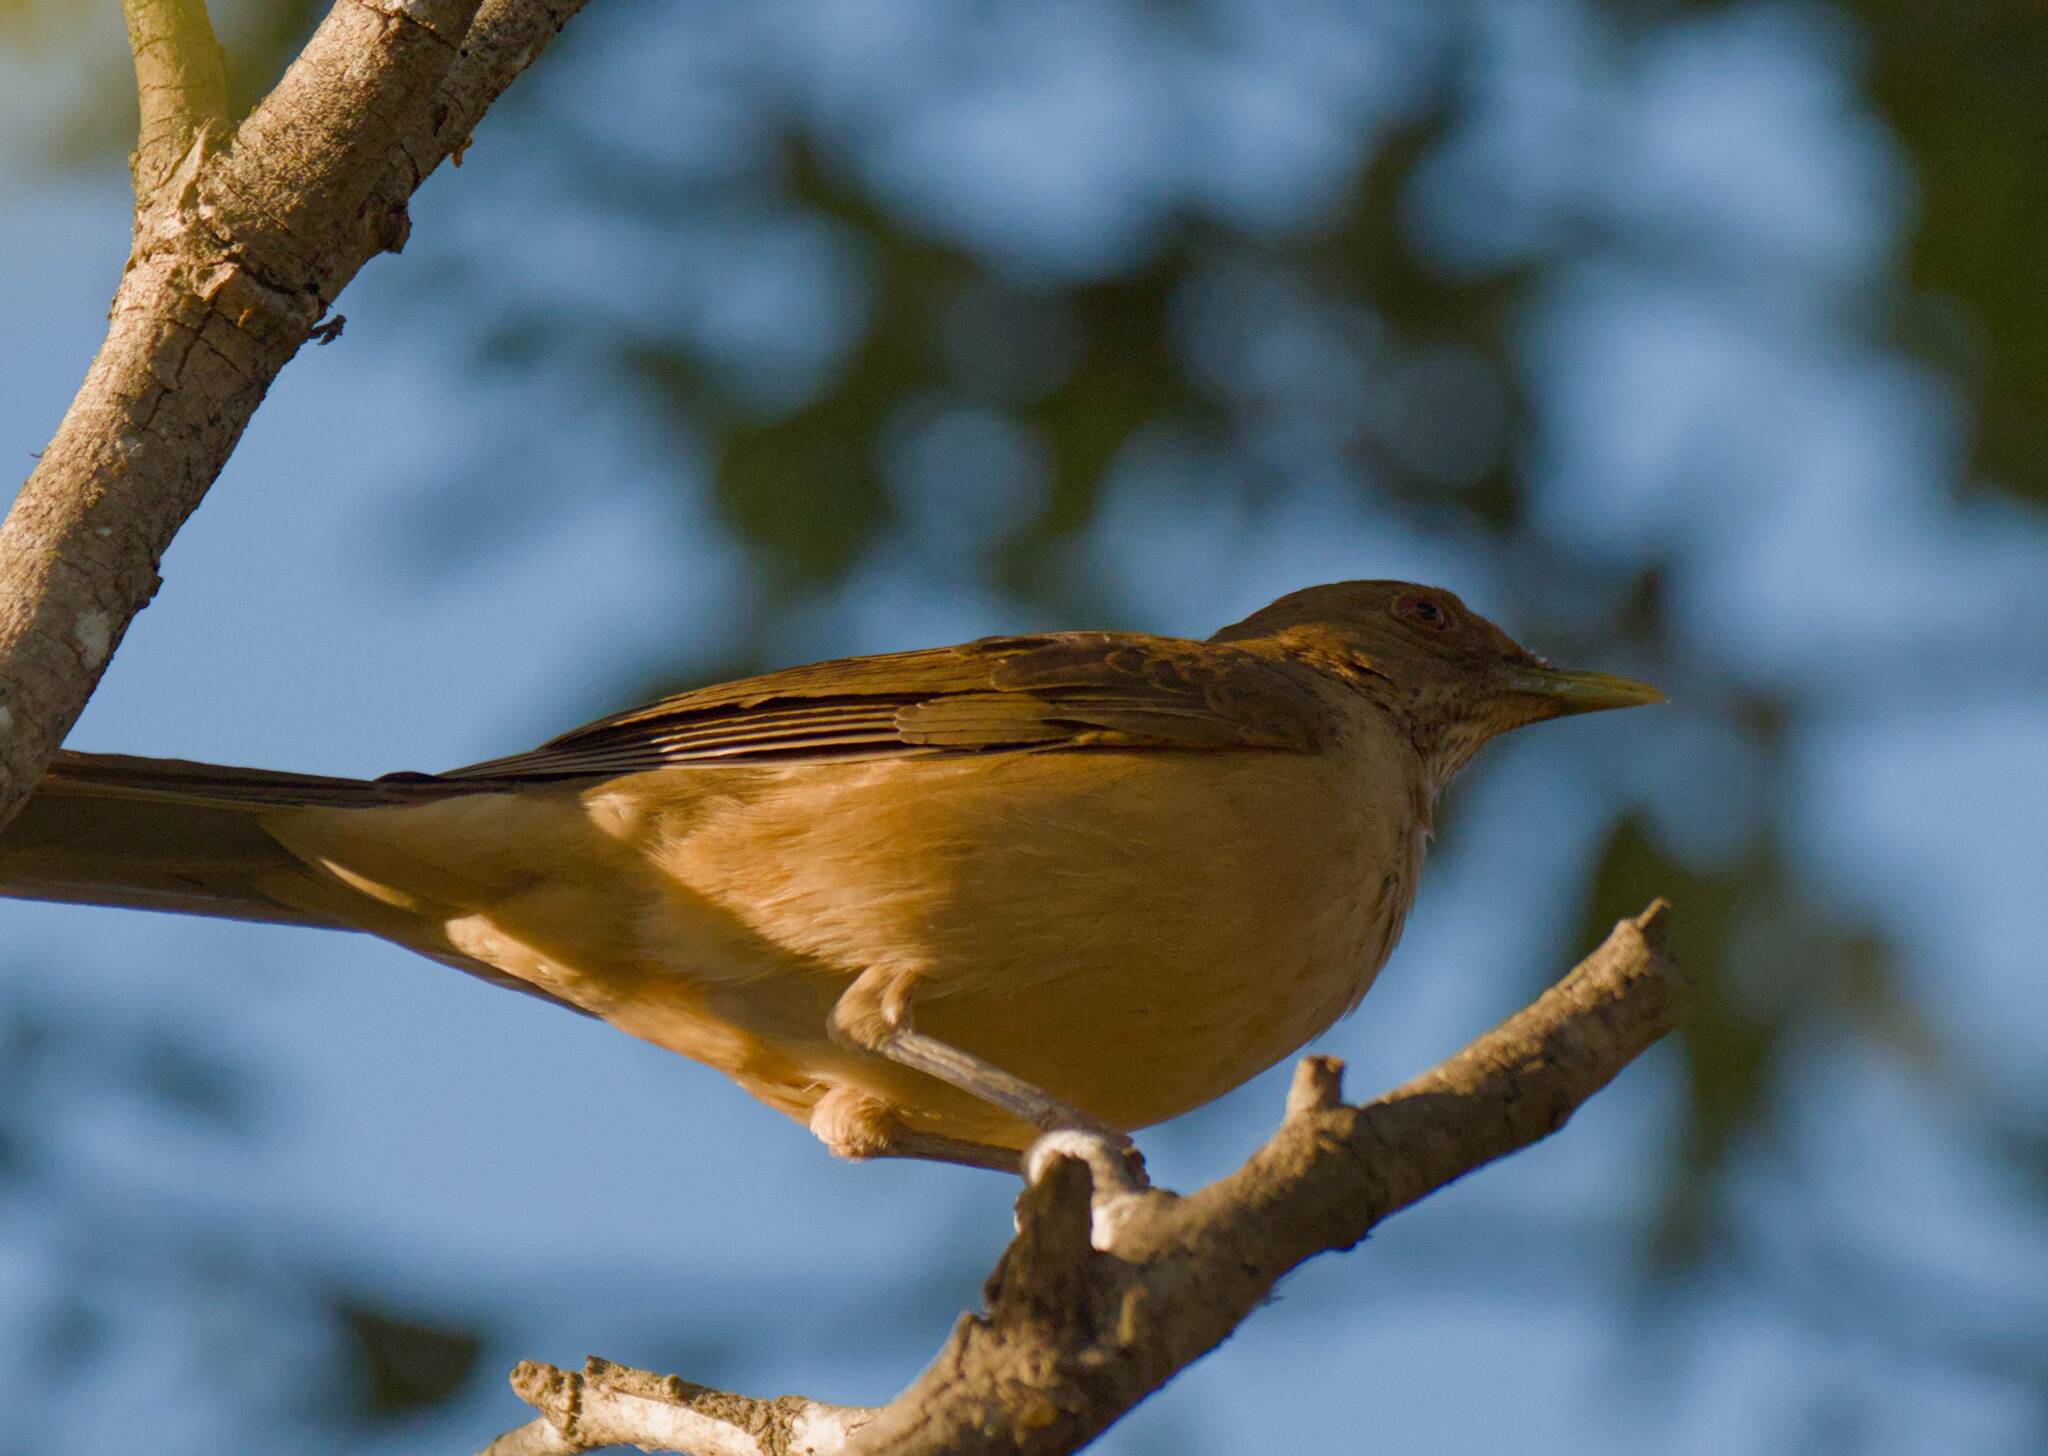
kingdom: Animalia
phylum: Chordata
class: Aves
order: Passeriformes
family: Turdidae
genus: Turdus
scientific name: Turdus grayi
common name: Clay-colored thrush
